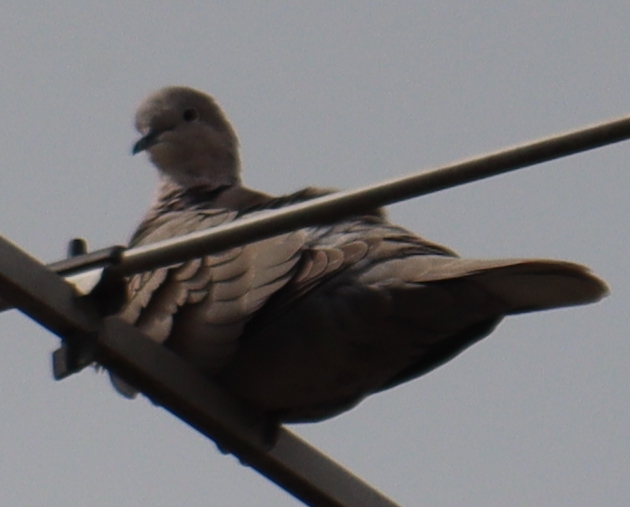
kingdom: Animalia
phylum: Chordata
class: Aves
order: Columbiformes
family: Columbidae
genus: Streptopelia
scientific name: Streptopelia decaocto
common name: Eurasian collared dove
